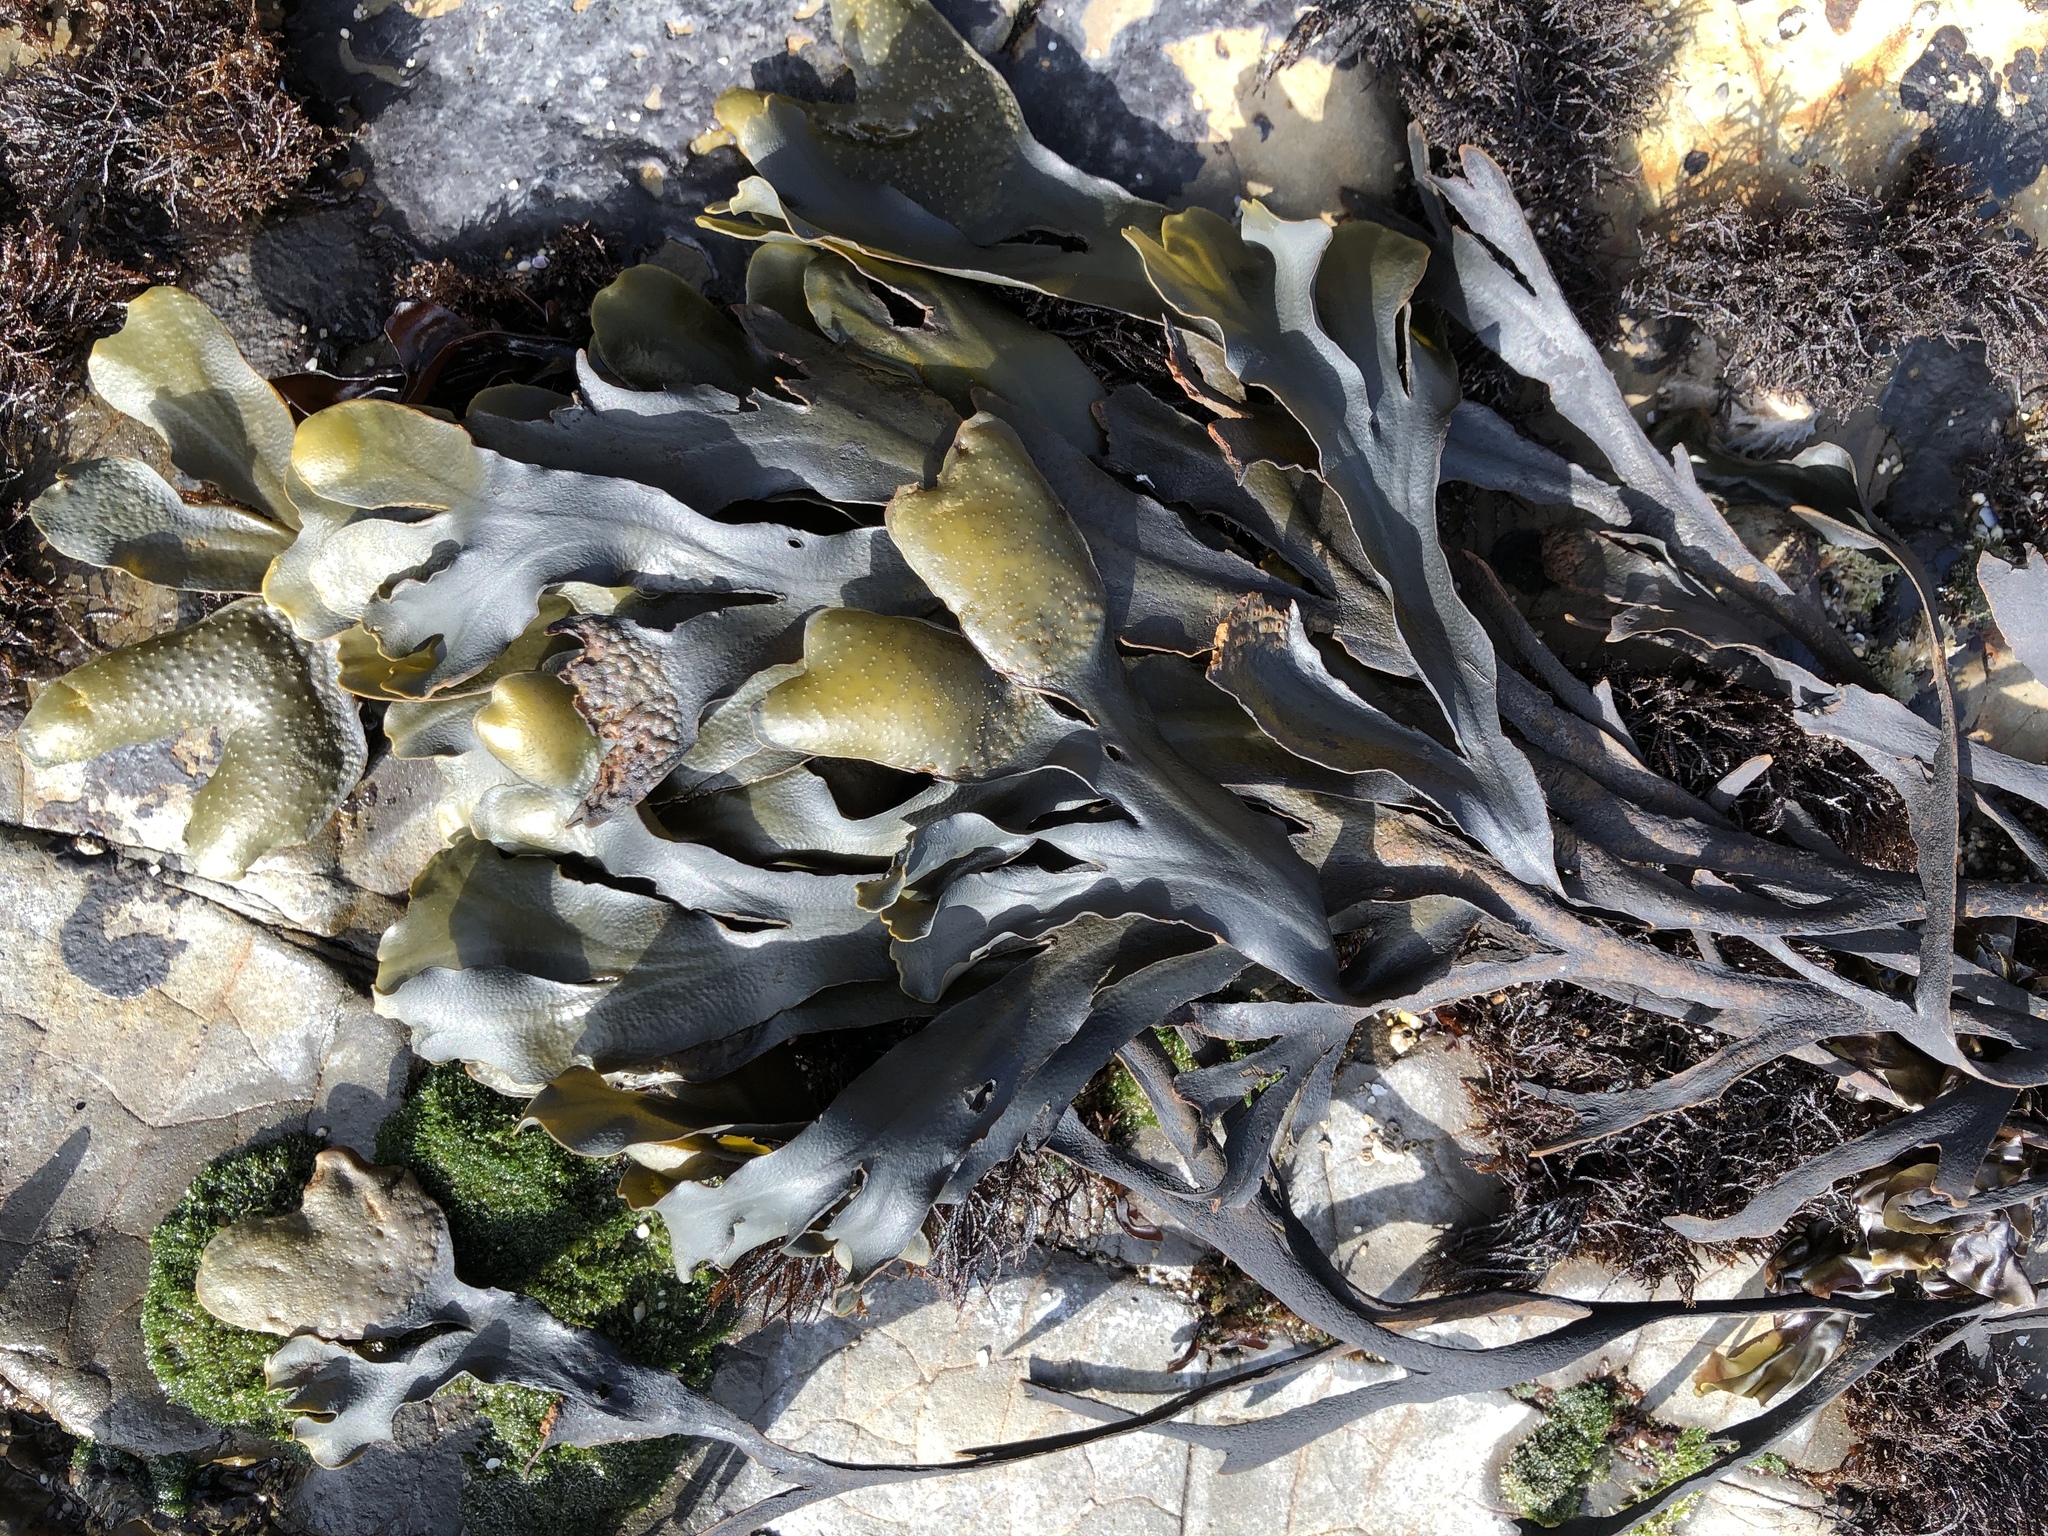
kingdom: Chromista
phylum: Ochrophyta
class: Phaeophyceae
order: Fucales
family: Fucaceae
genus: Fucus
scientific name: Fucus distichus
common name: Rockweed
